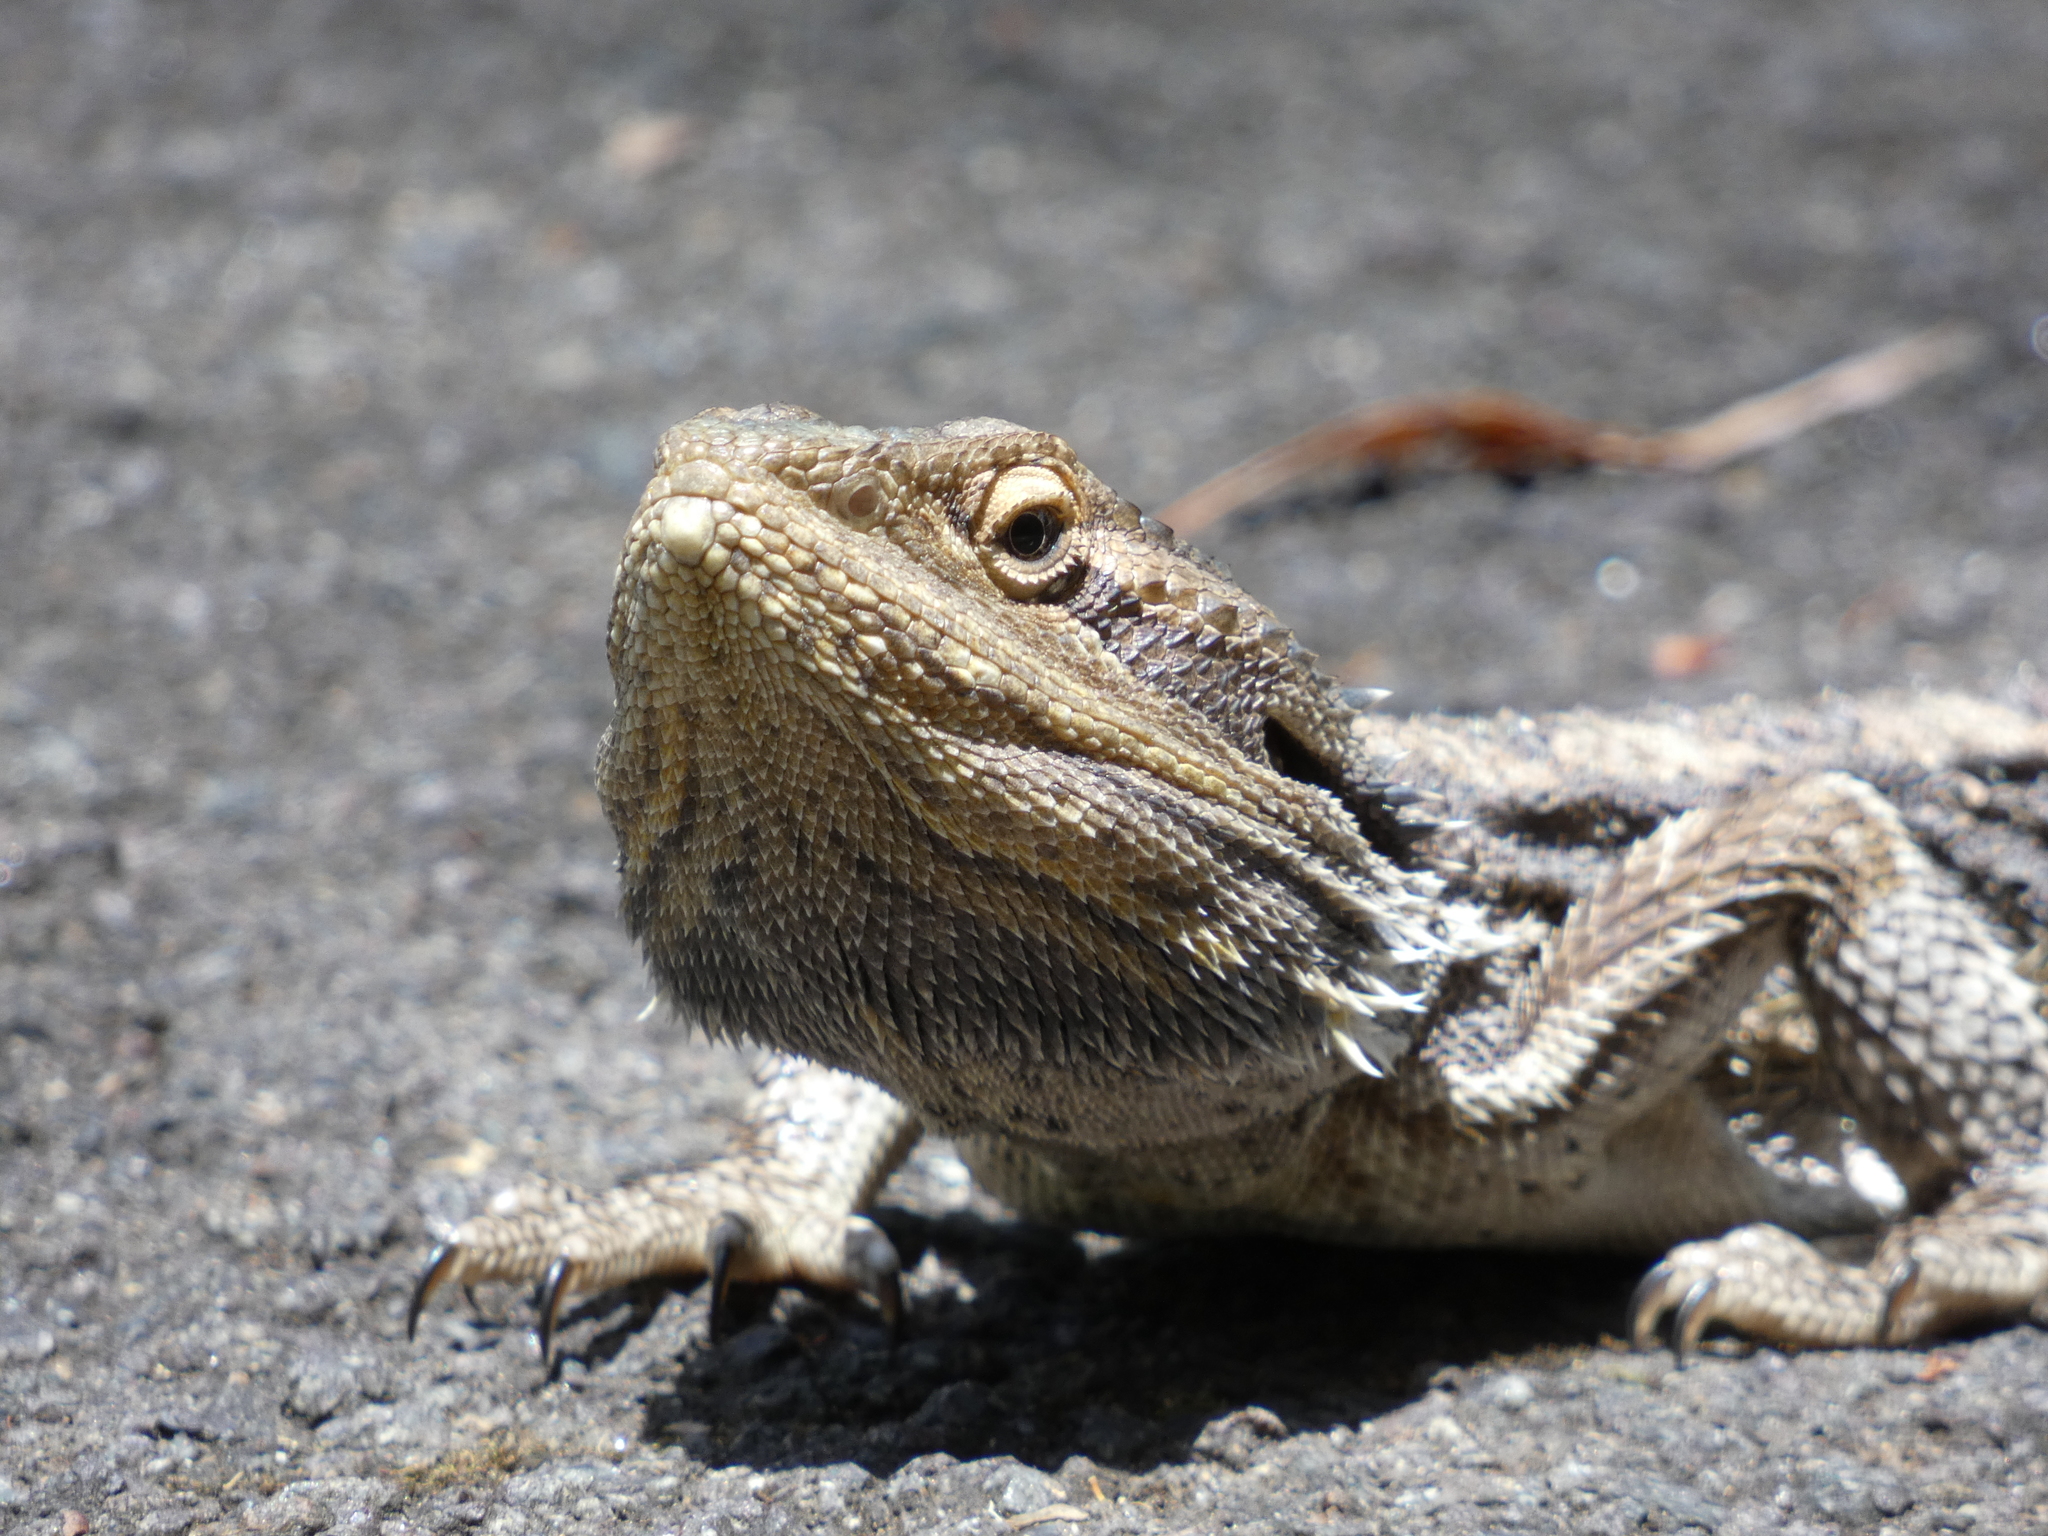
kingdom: Animalia
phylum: Chordata
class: Squamata
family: Agamidae
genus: Pogona
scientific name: Pogona barbata
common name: Bearded dragon
